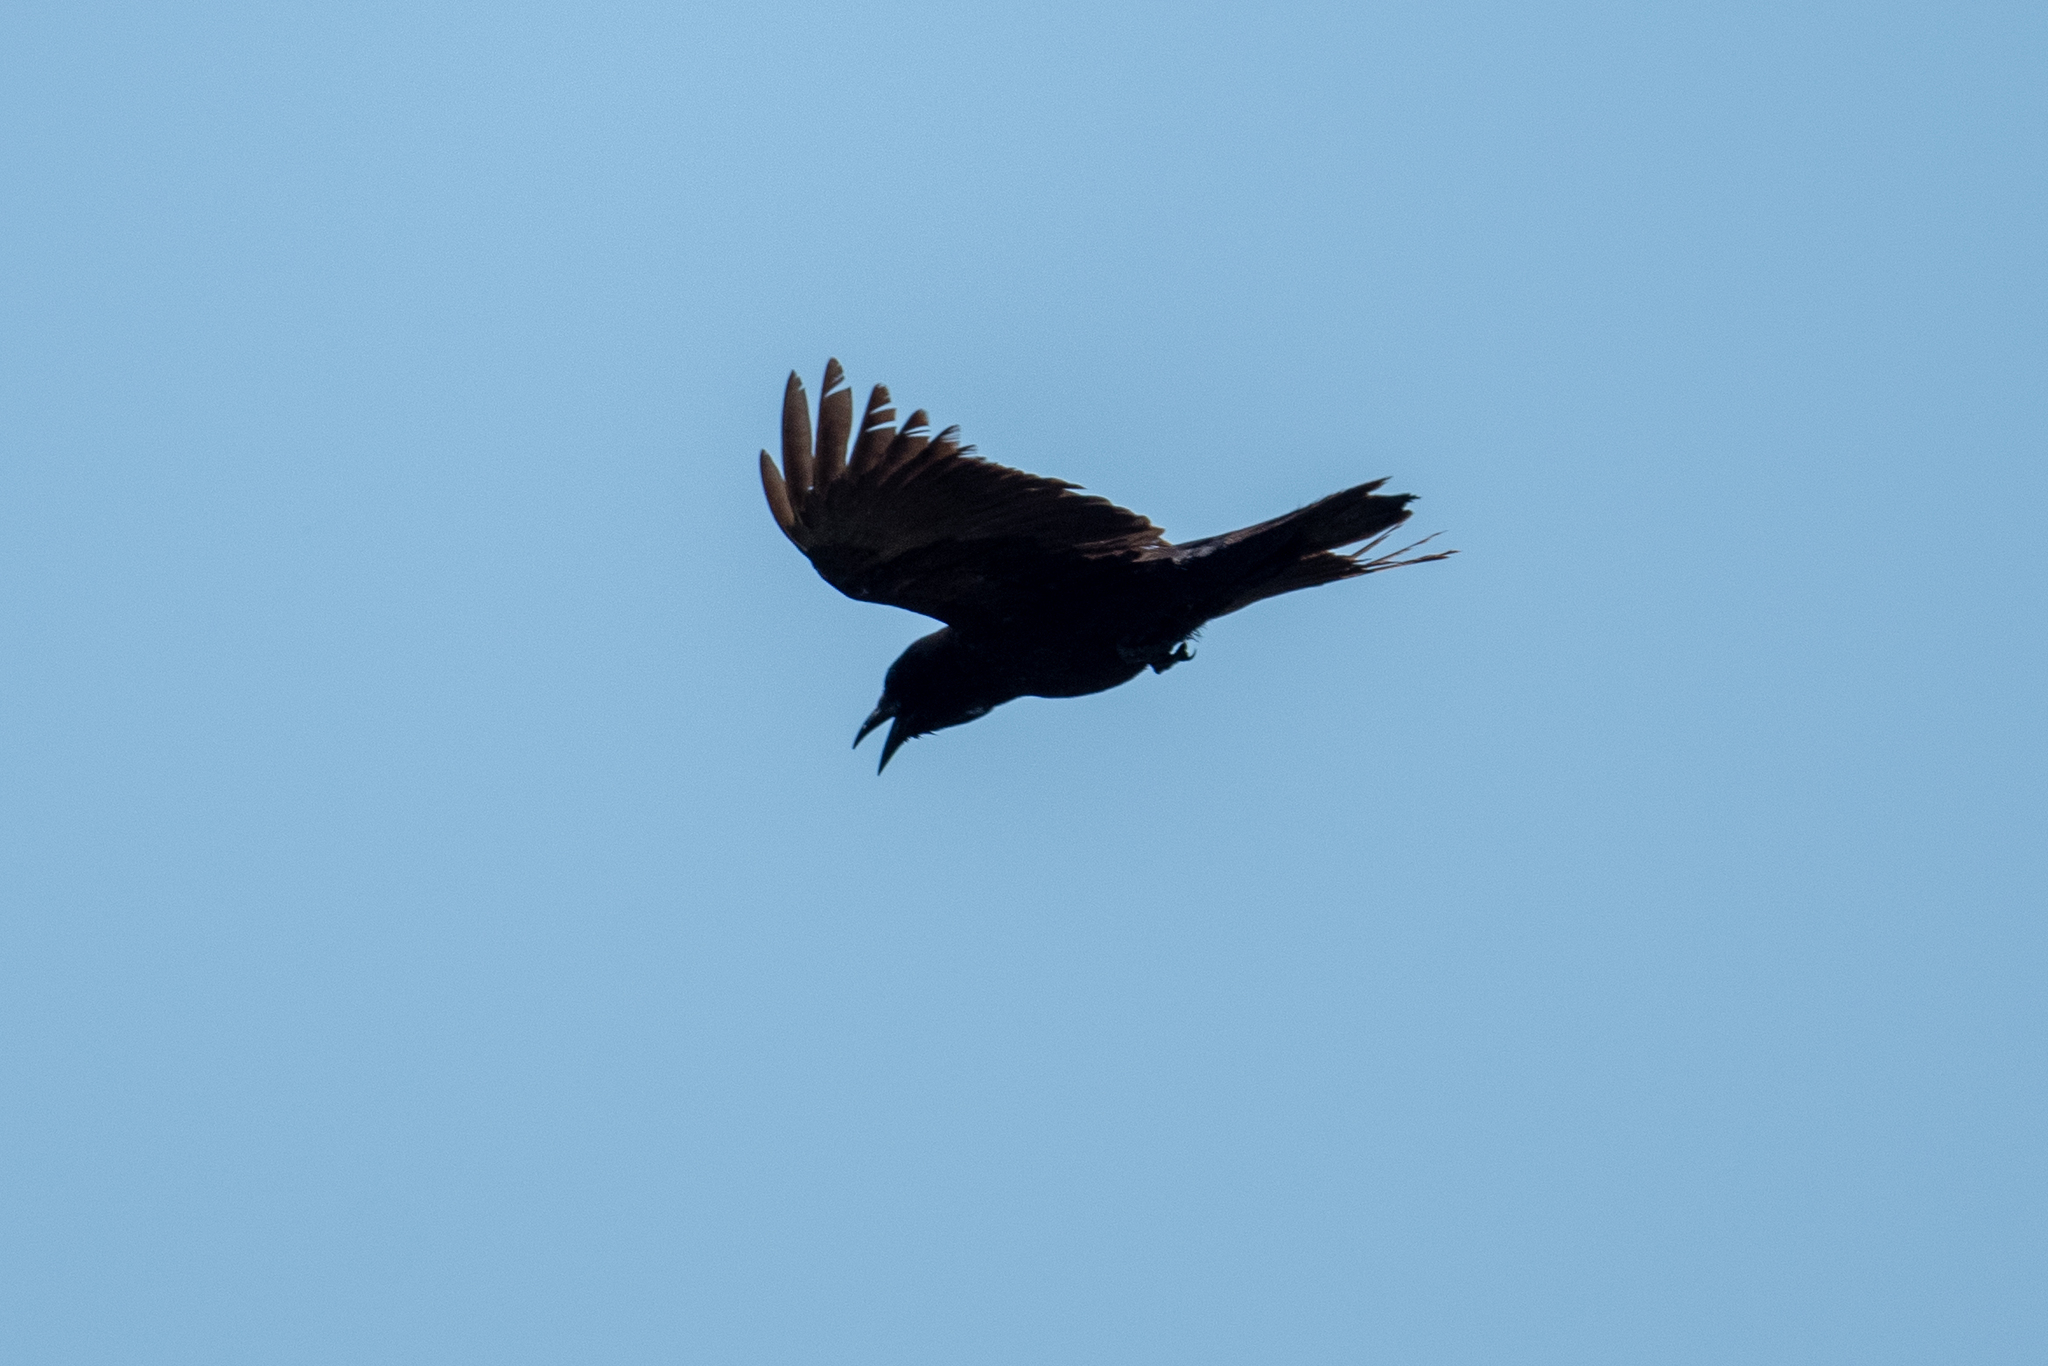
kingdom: Animalia
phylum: Chordata
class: Aves
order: Passeriformes
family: Corvidae
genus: Corvus
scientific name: Corvus corax
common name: Common raven
